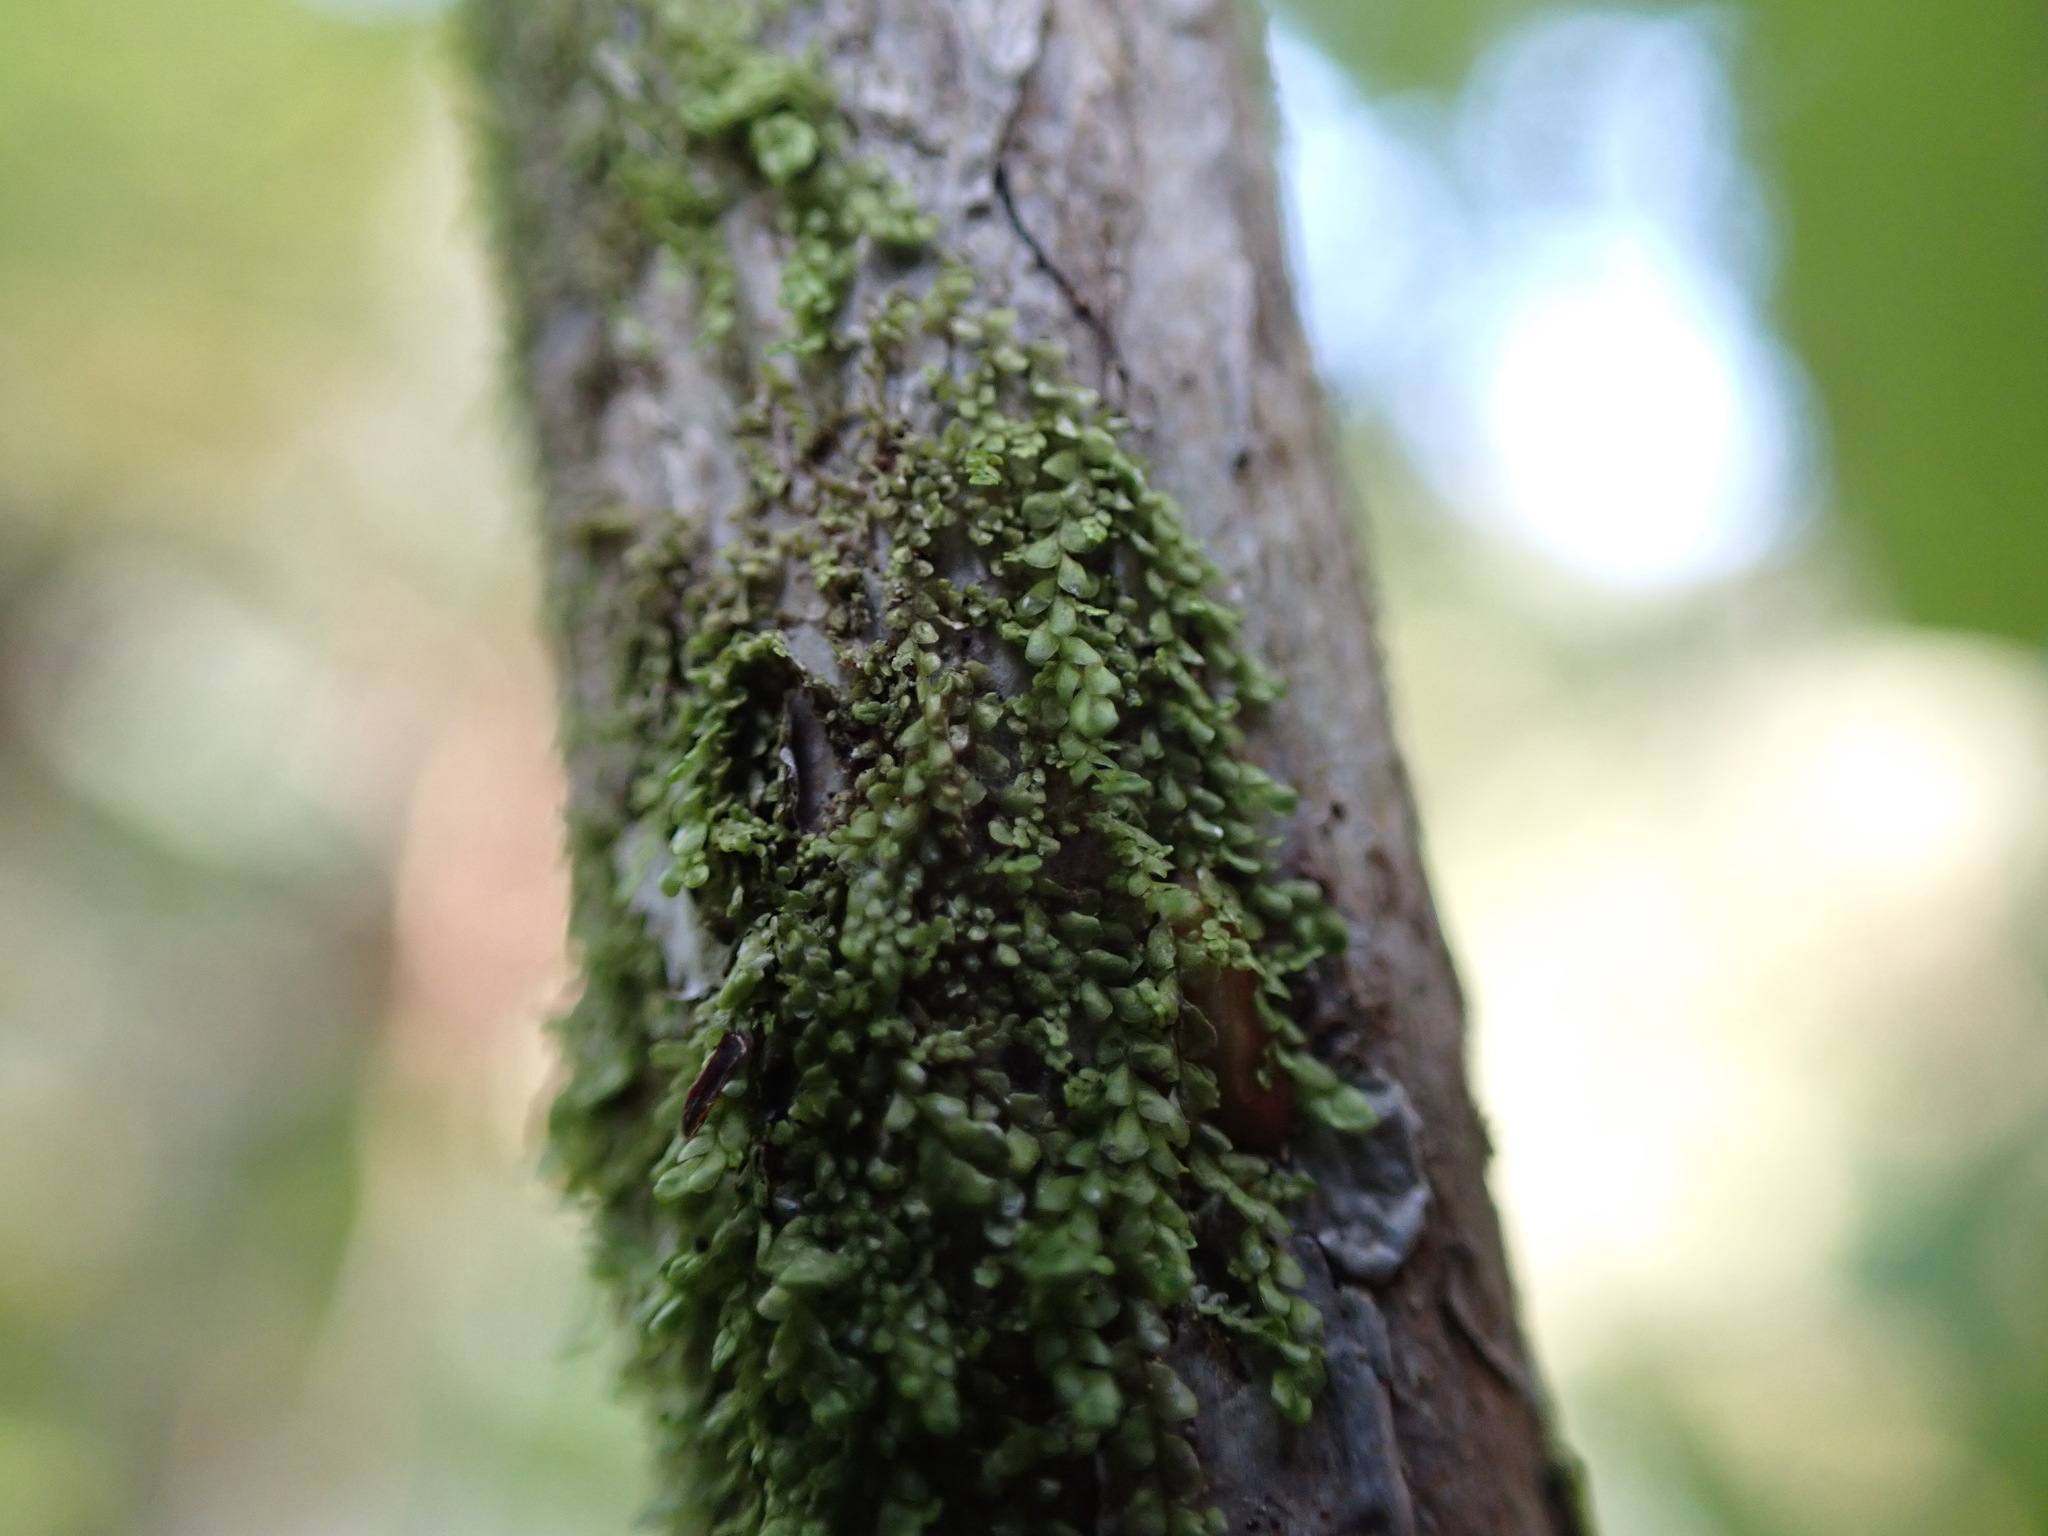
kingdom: Plantae
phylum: Marchantiophyta
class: Jungermanniopsida
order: Porellales
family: Radulaceae
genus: Radula
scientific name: Radula bolanderi
